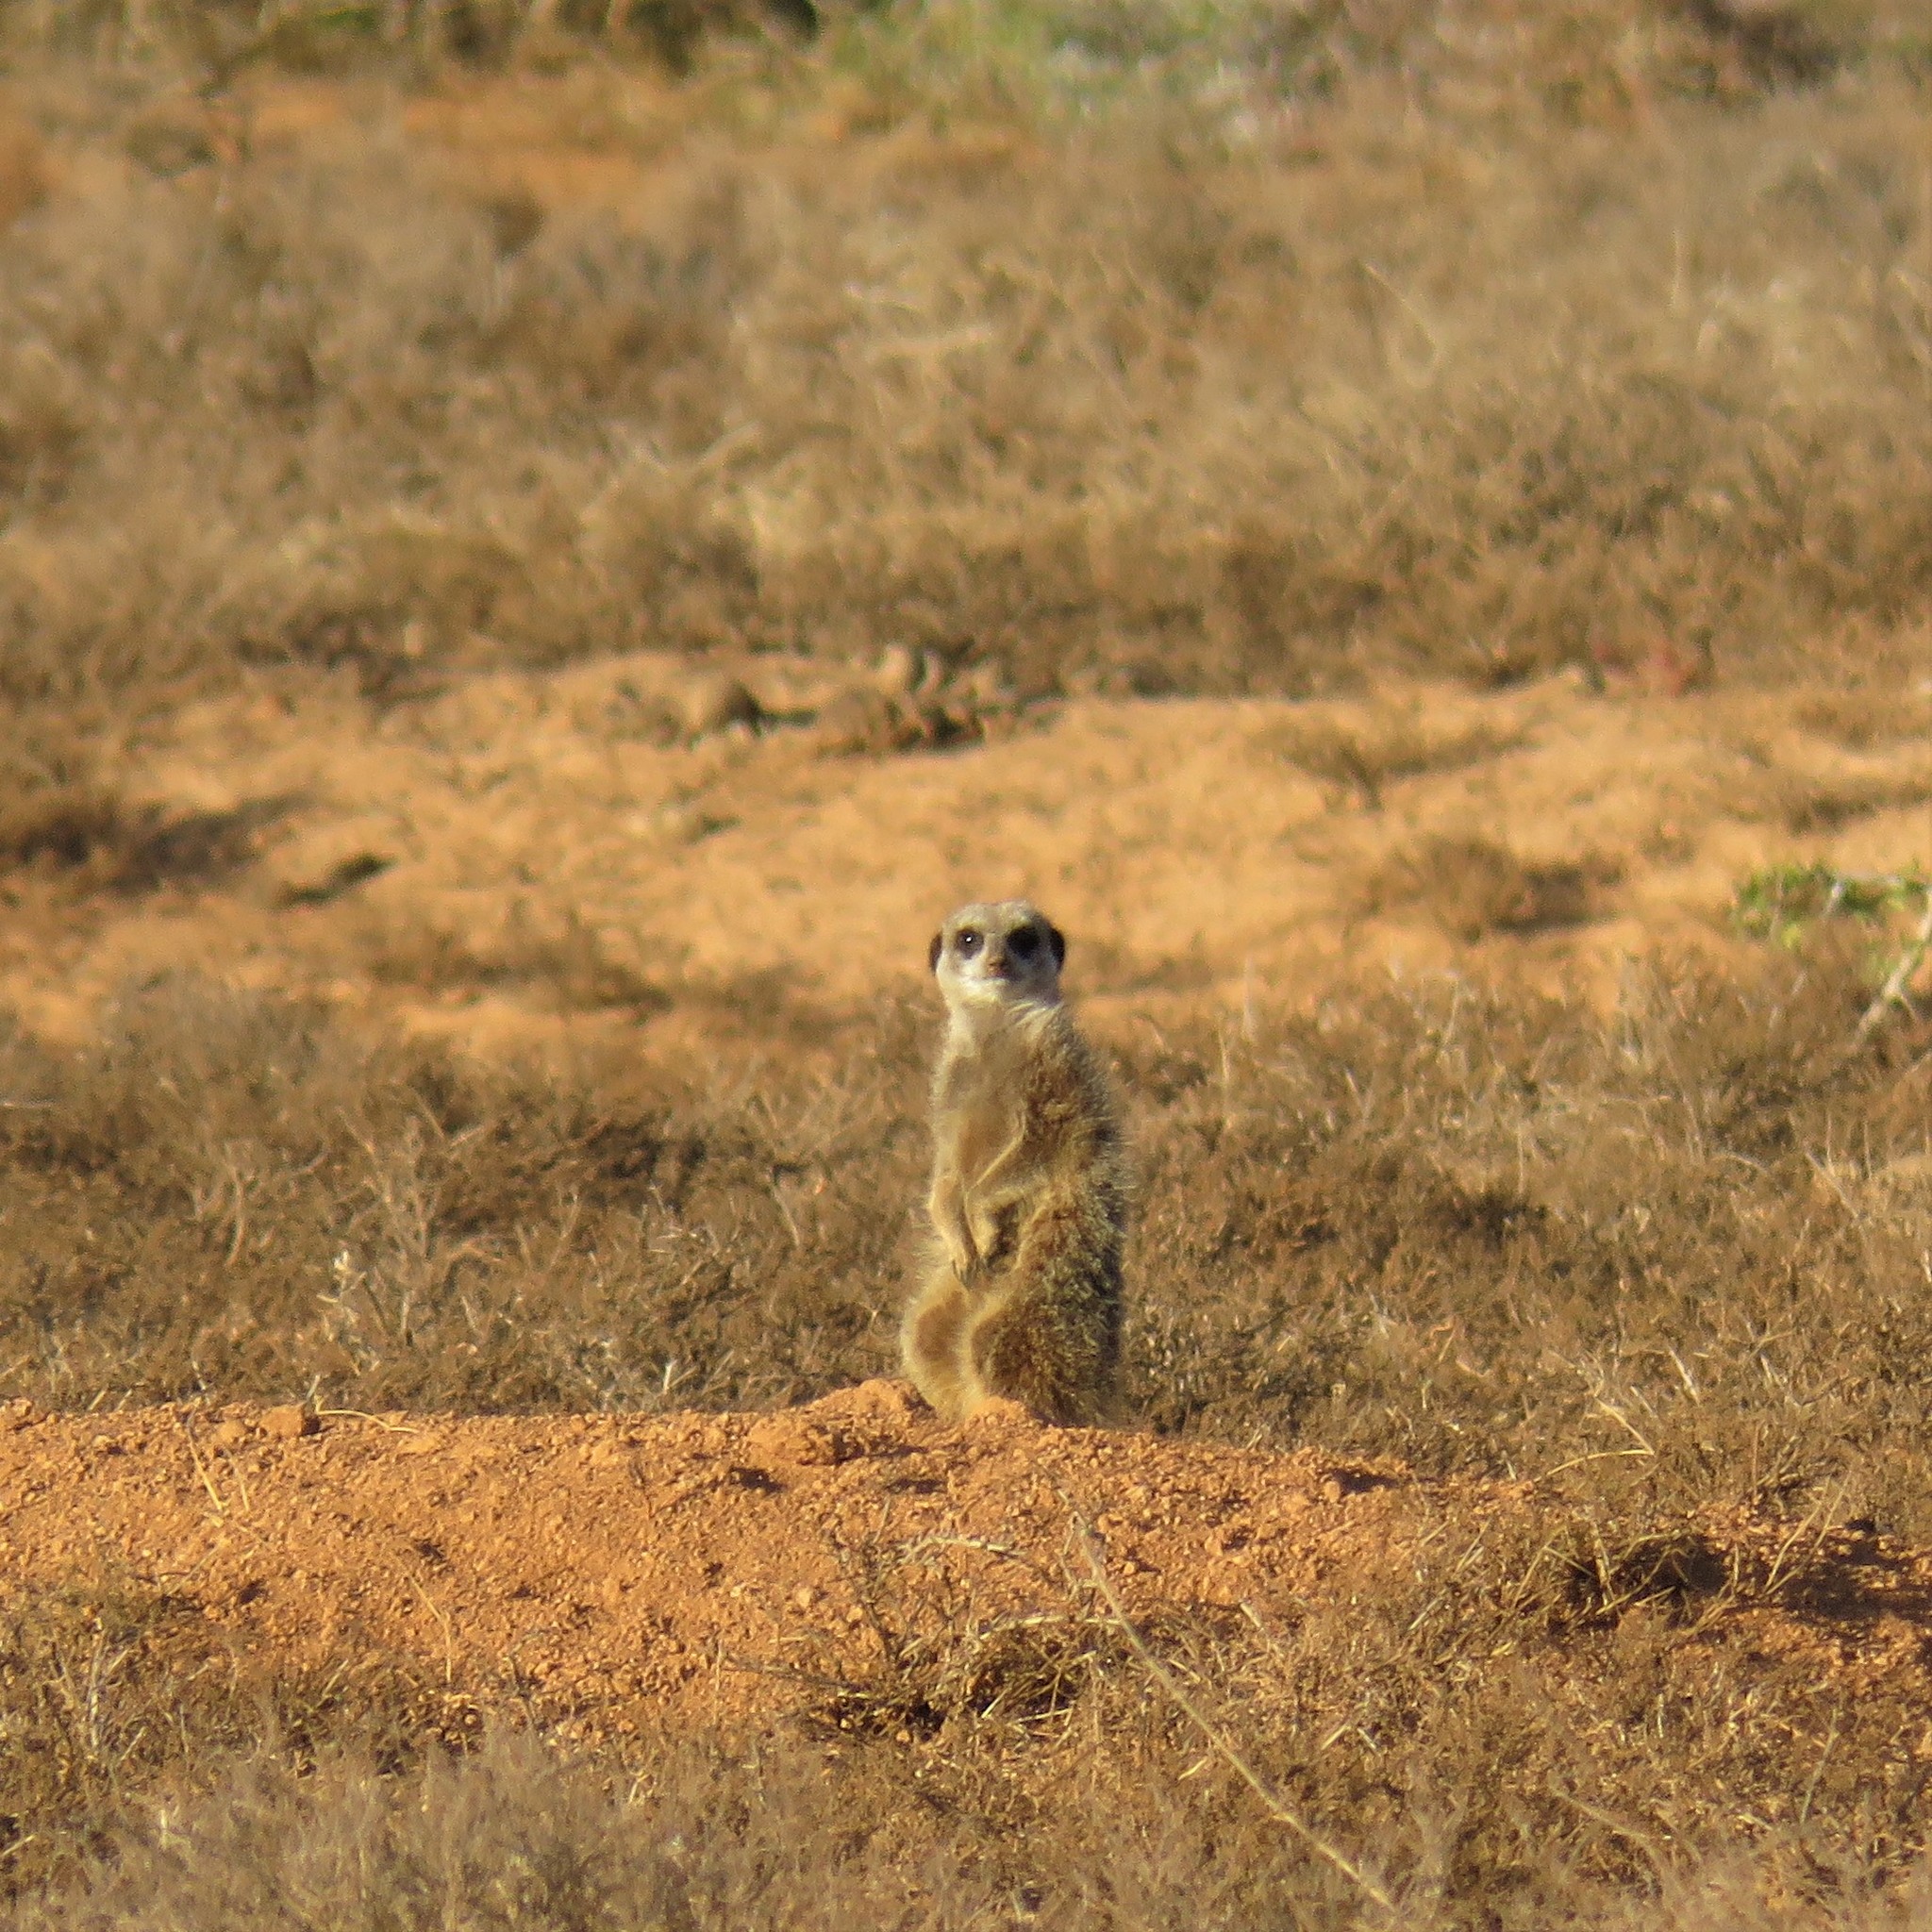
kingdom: Animalia
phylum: Chordata
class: Mammalia
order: Carnivora
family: Herpestidae
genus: Suricata
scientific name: Suricata suricatta
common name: Meerkat
